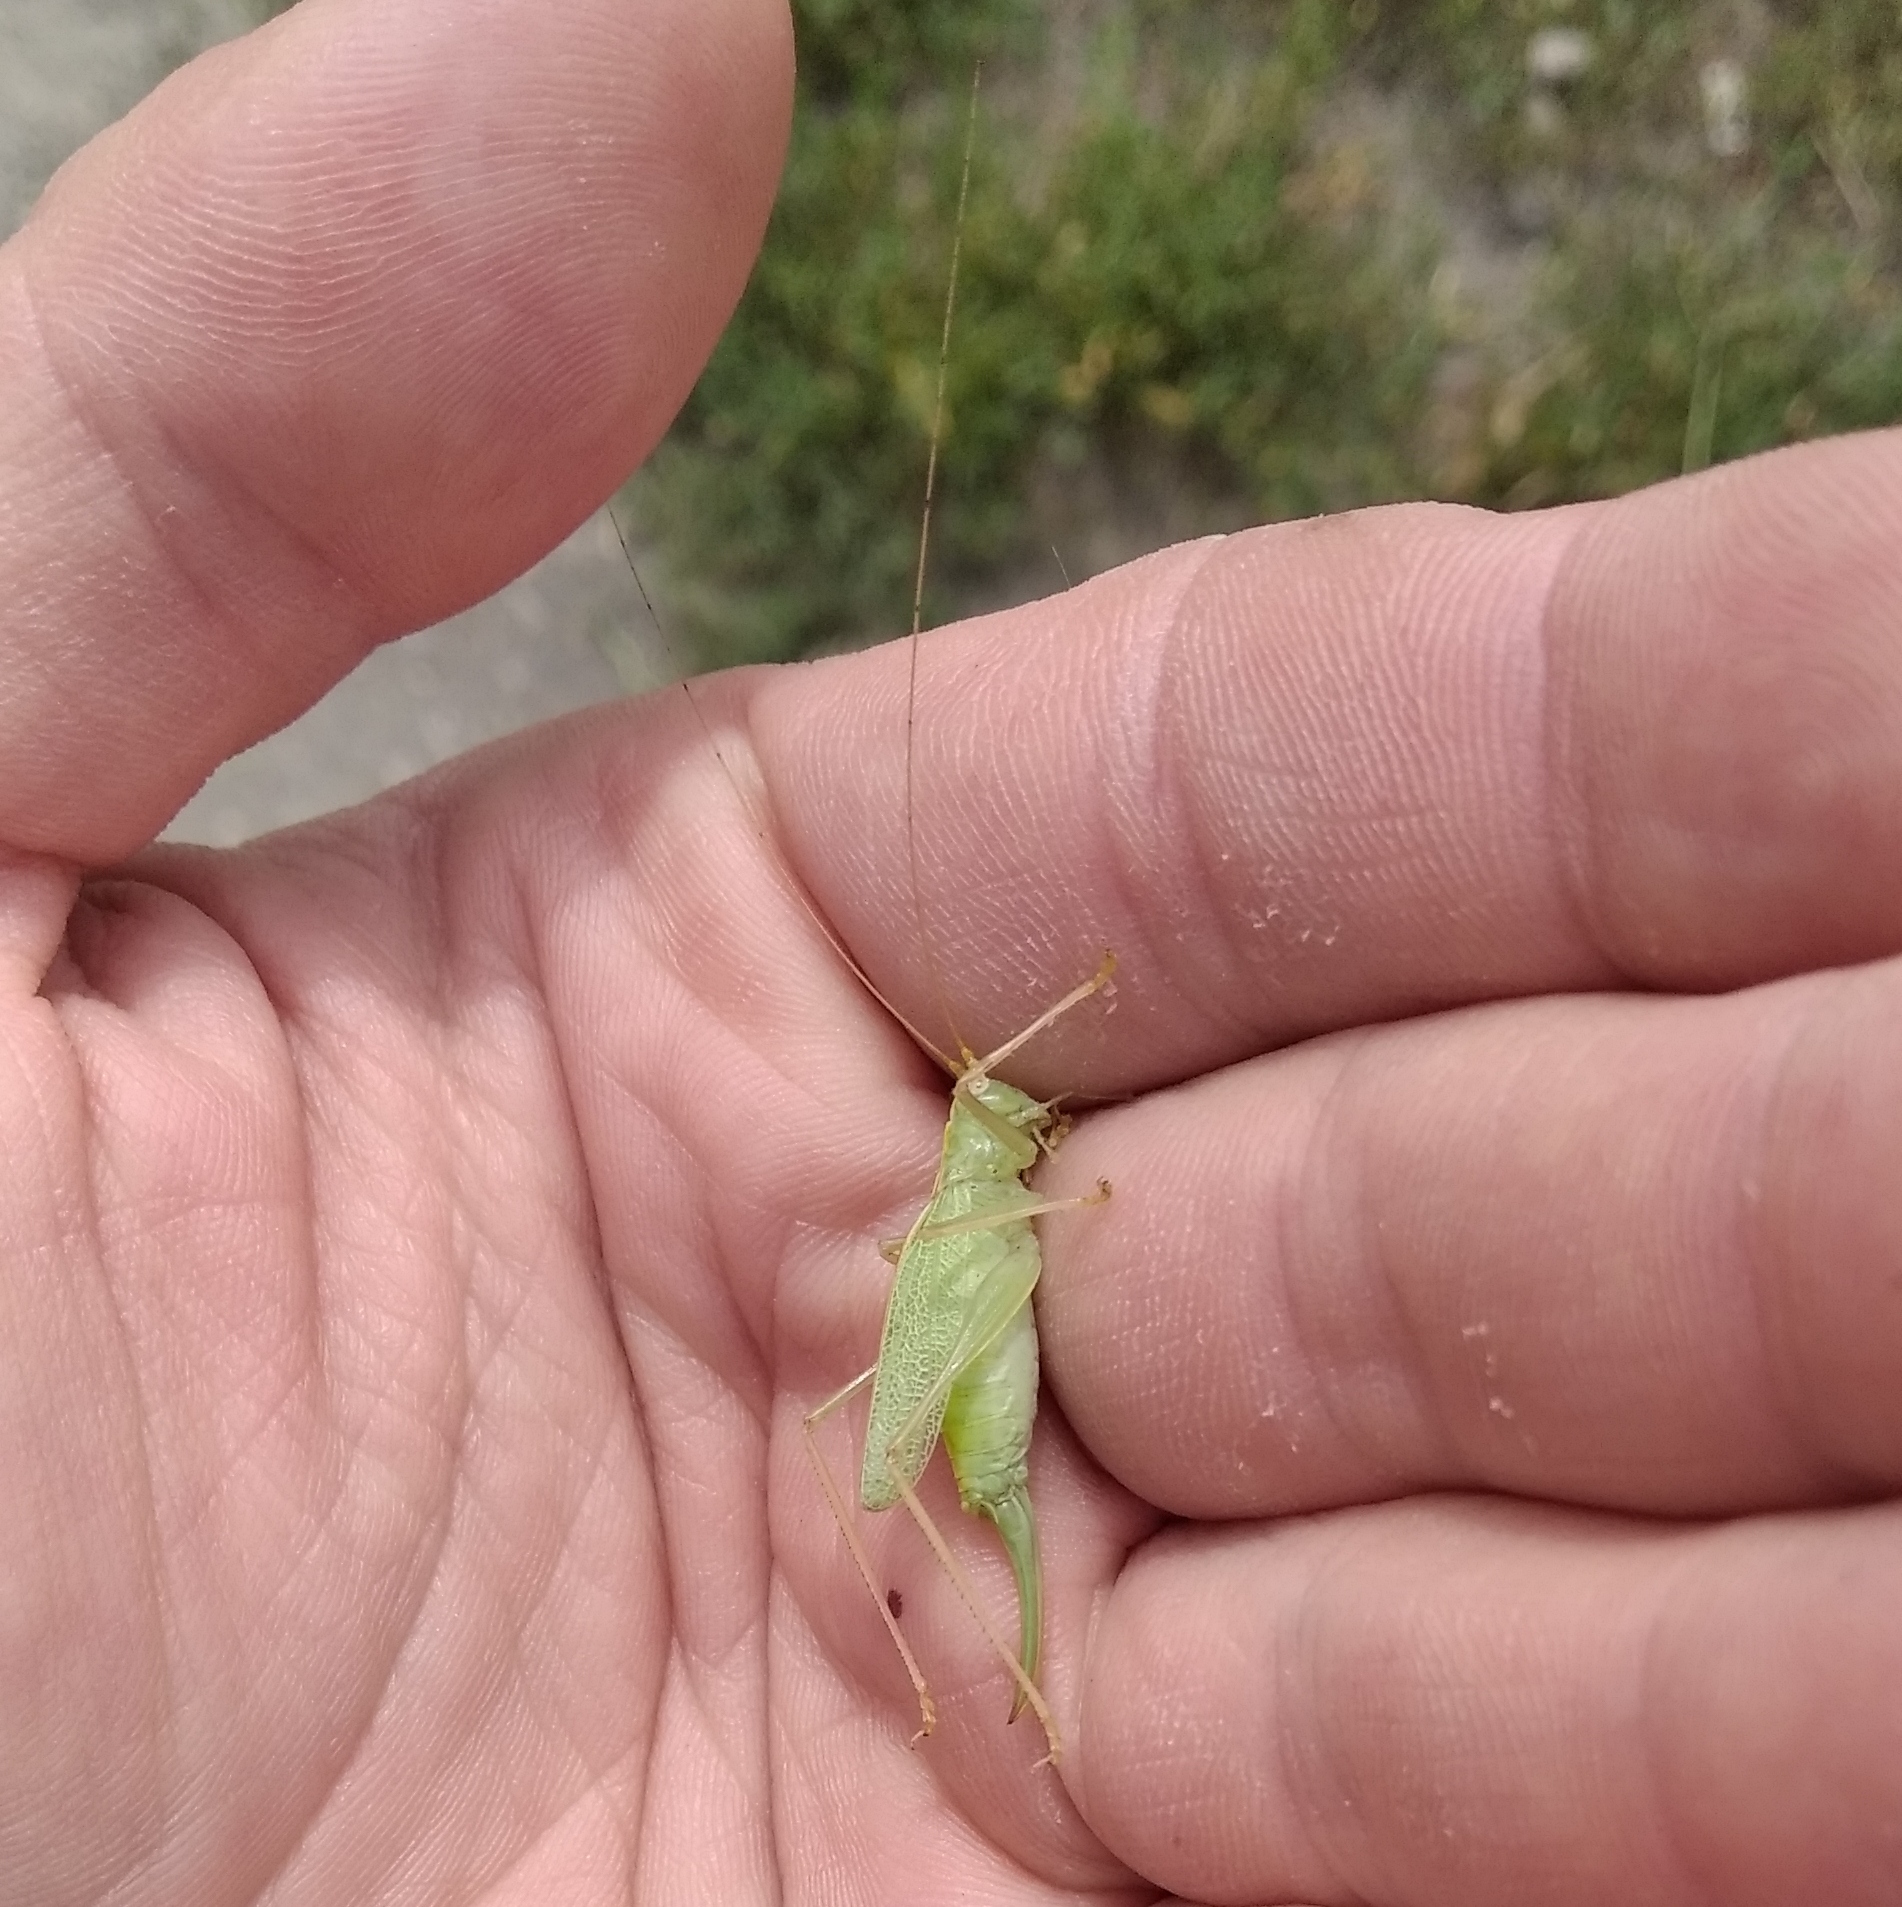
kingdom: Animalia
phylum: Arthropoda
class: Insecta
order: Orthoptera
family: Tettigoniidae
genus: Meconema
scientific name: Meconema thalassinum
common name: Oak bush-cricket
